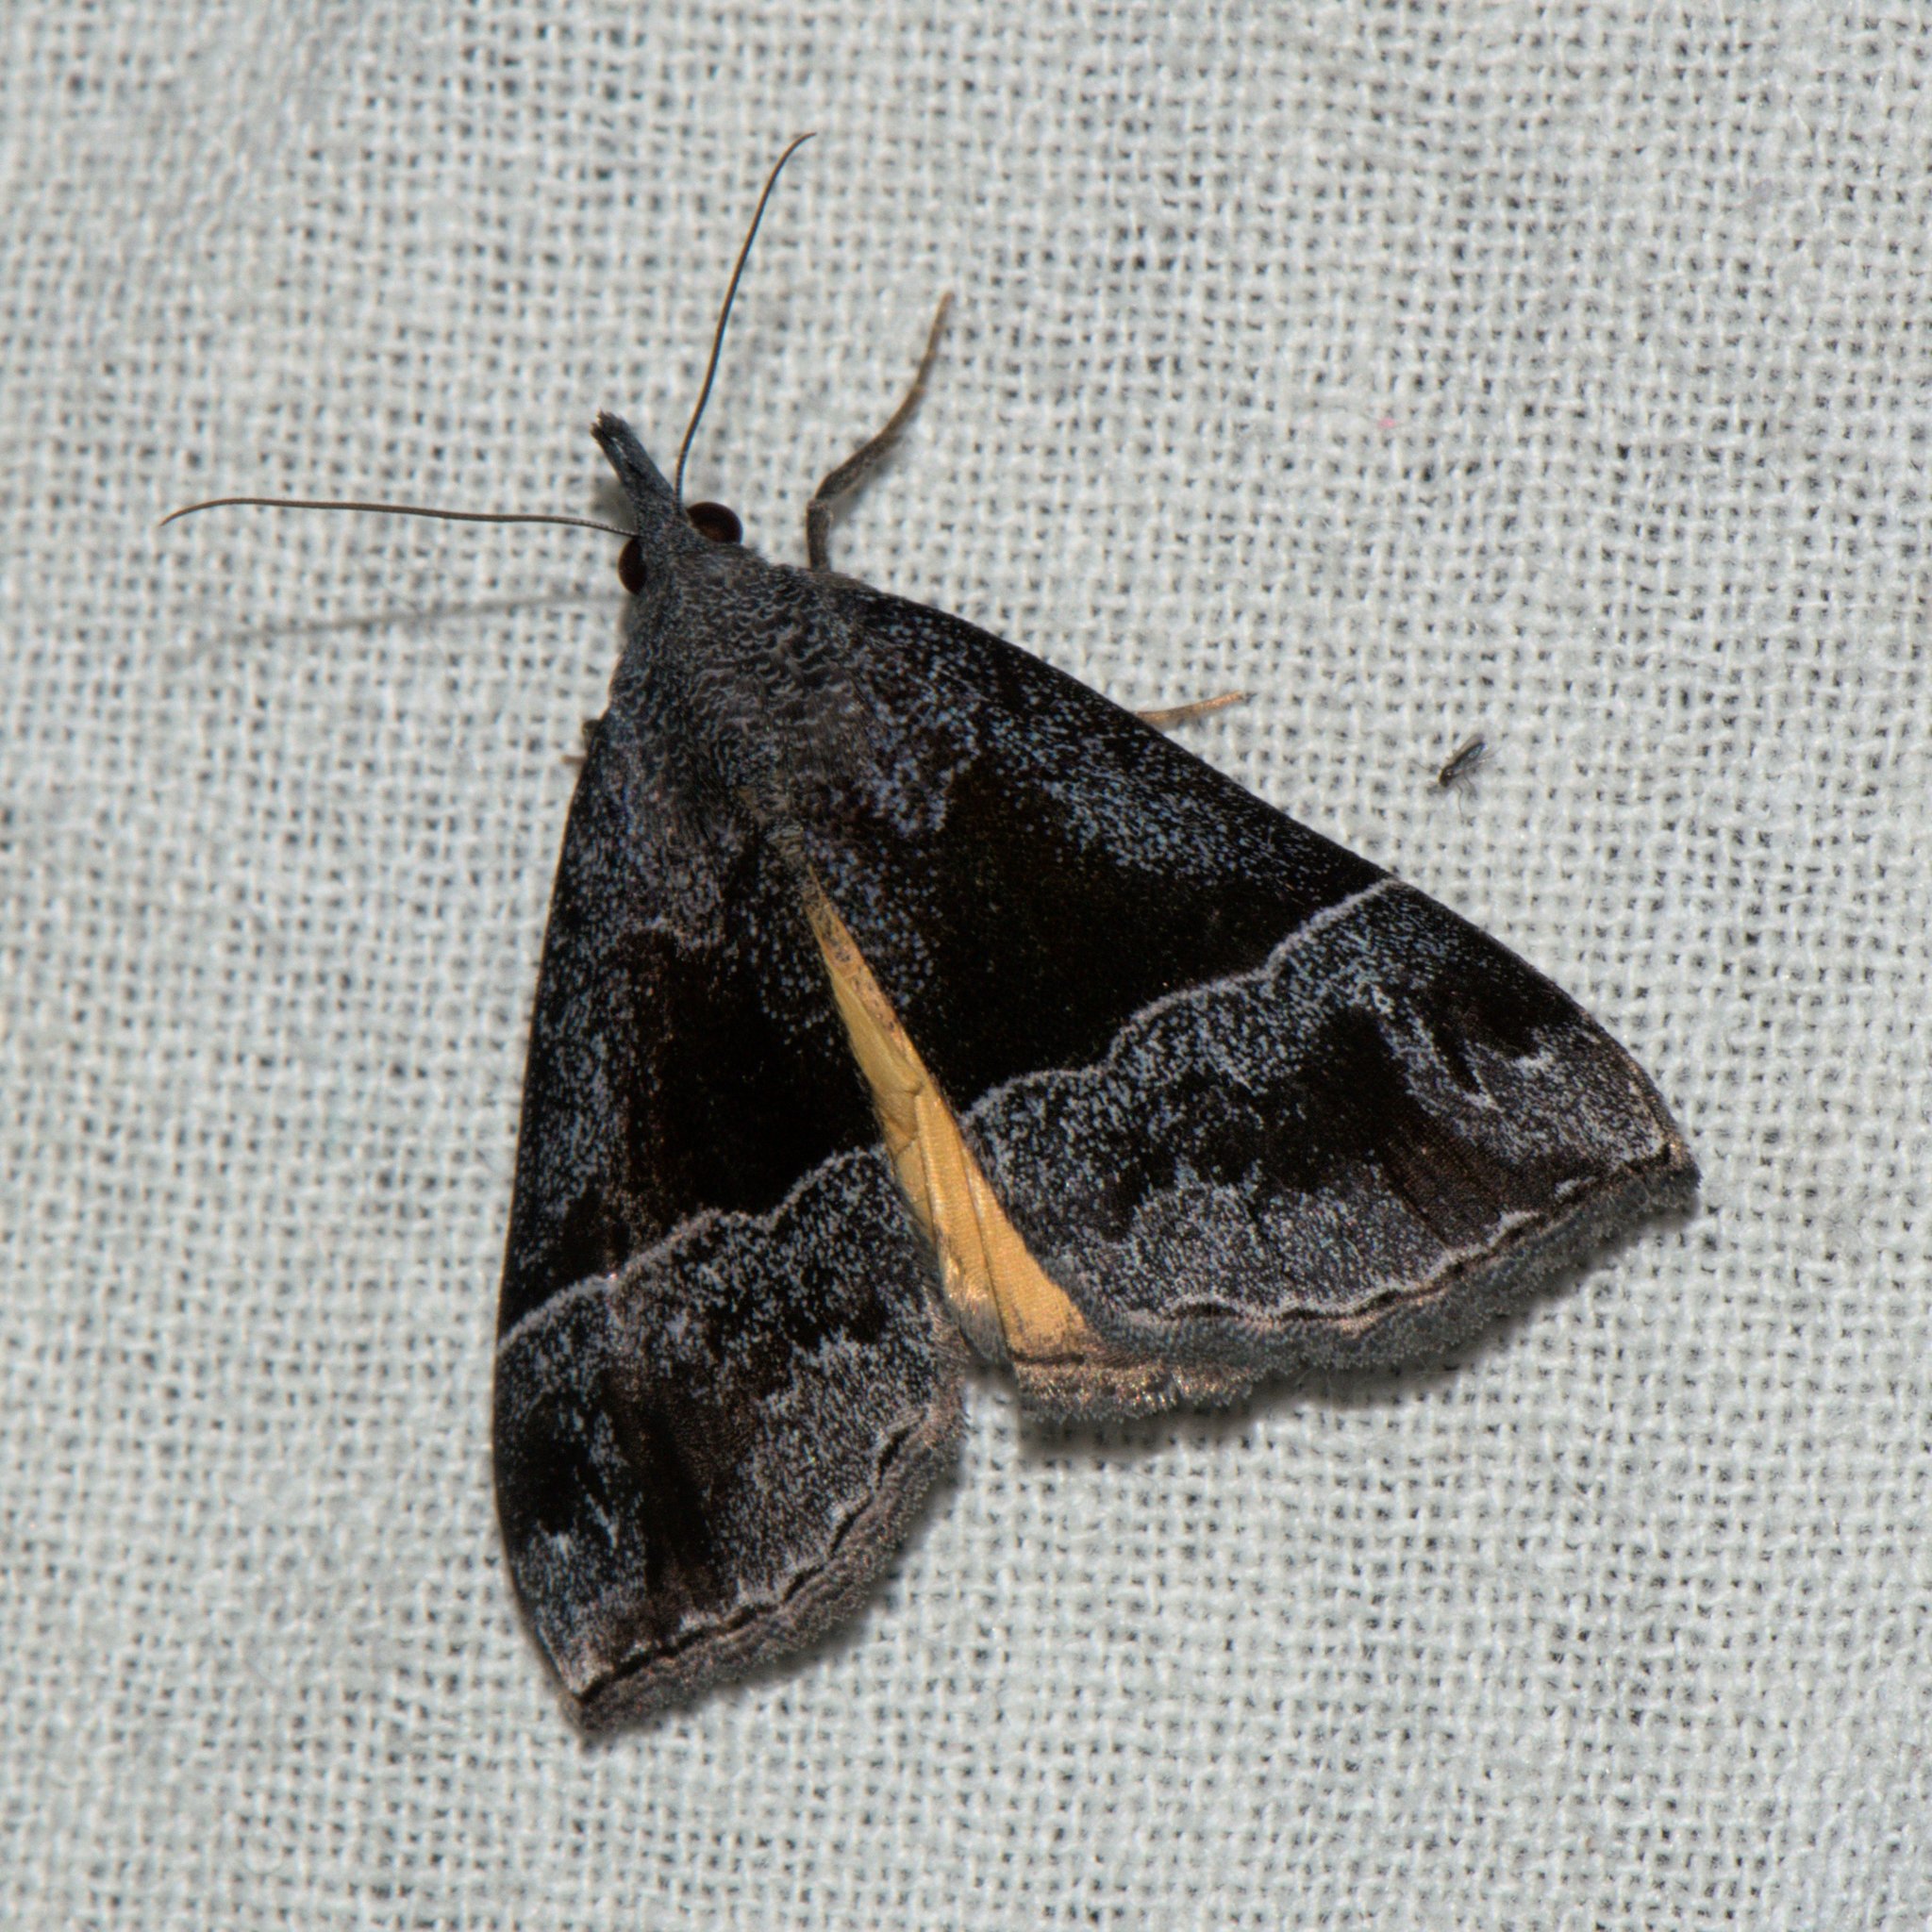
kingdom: Animalia
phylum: Arthropoda
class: Insecta
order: Lepidoptera
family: Erebidae
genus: Hypena
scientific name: Hypena amica
